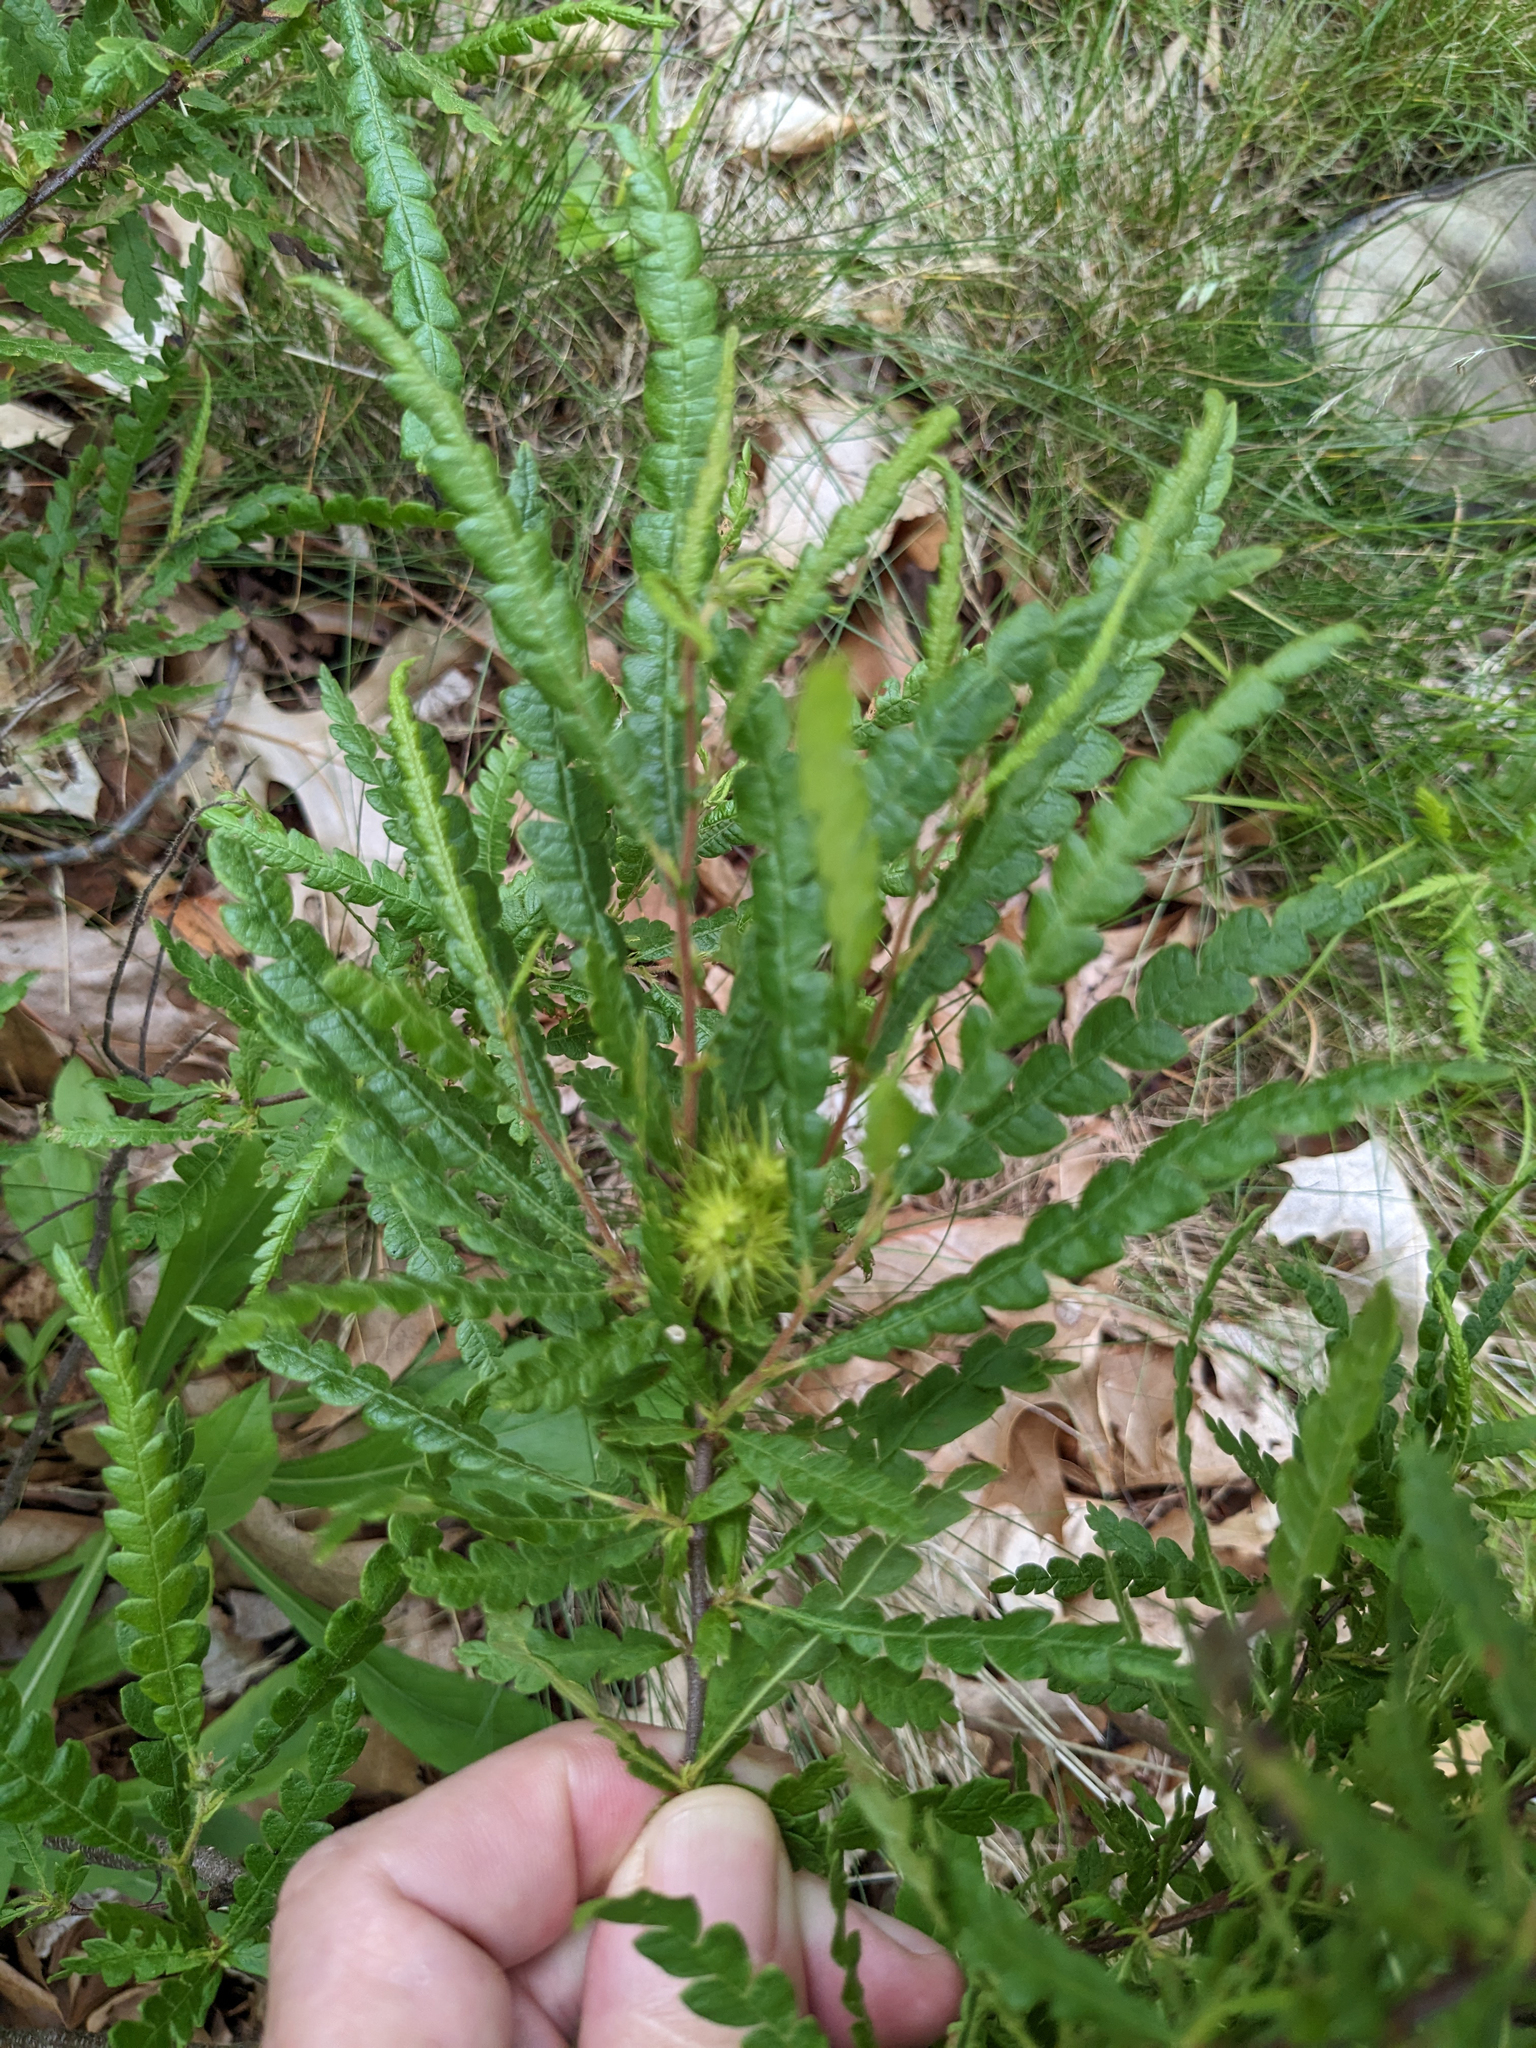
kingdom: Plantae
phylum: Tracheophyta
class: Magnoliopsida
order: Fagales
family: Myricaceae
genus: Comptonia
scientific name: Comptonia peregrina
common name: Sweet-fern
